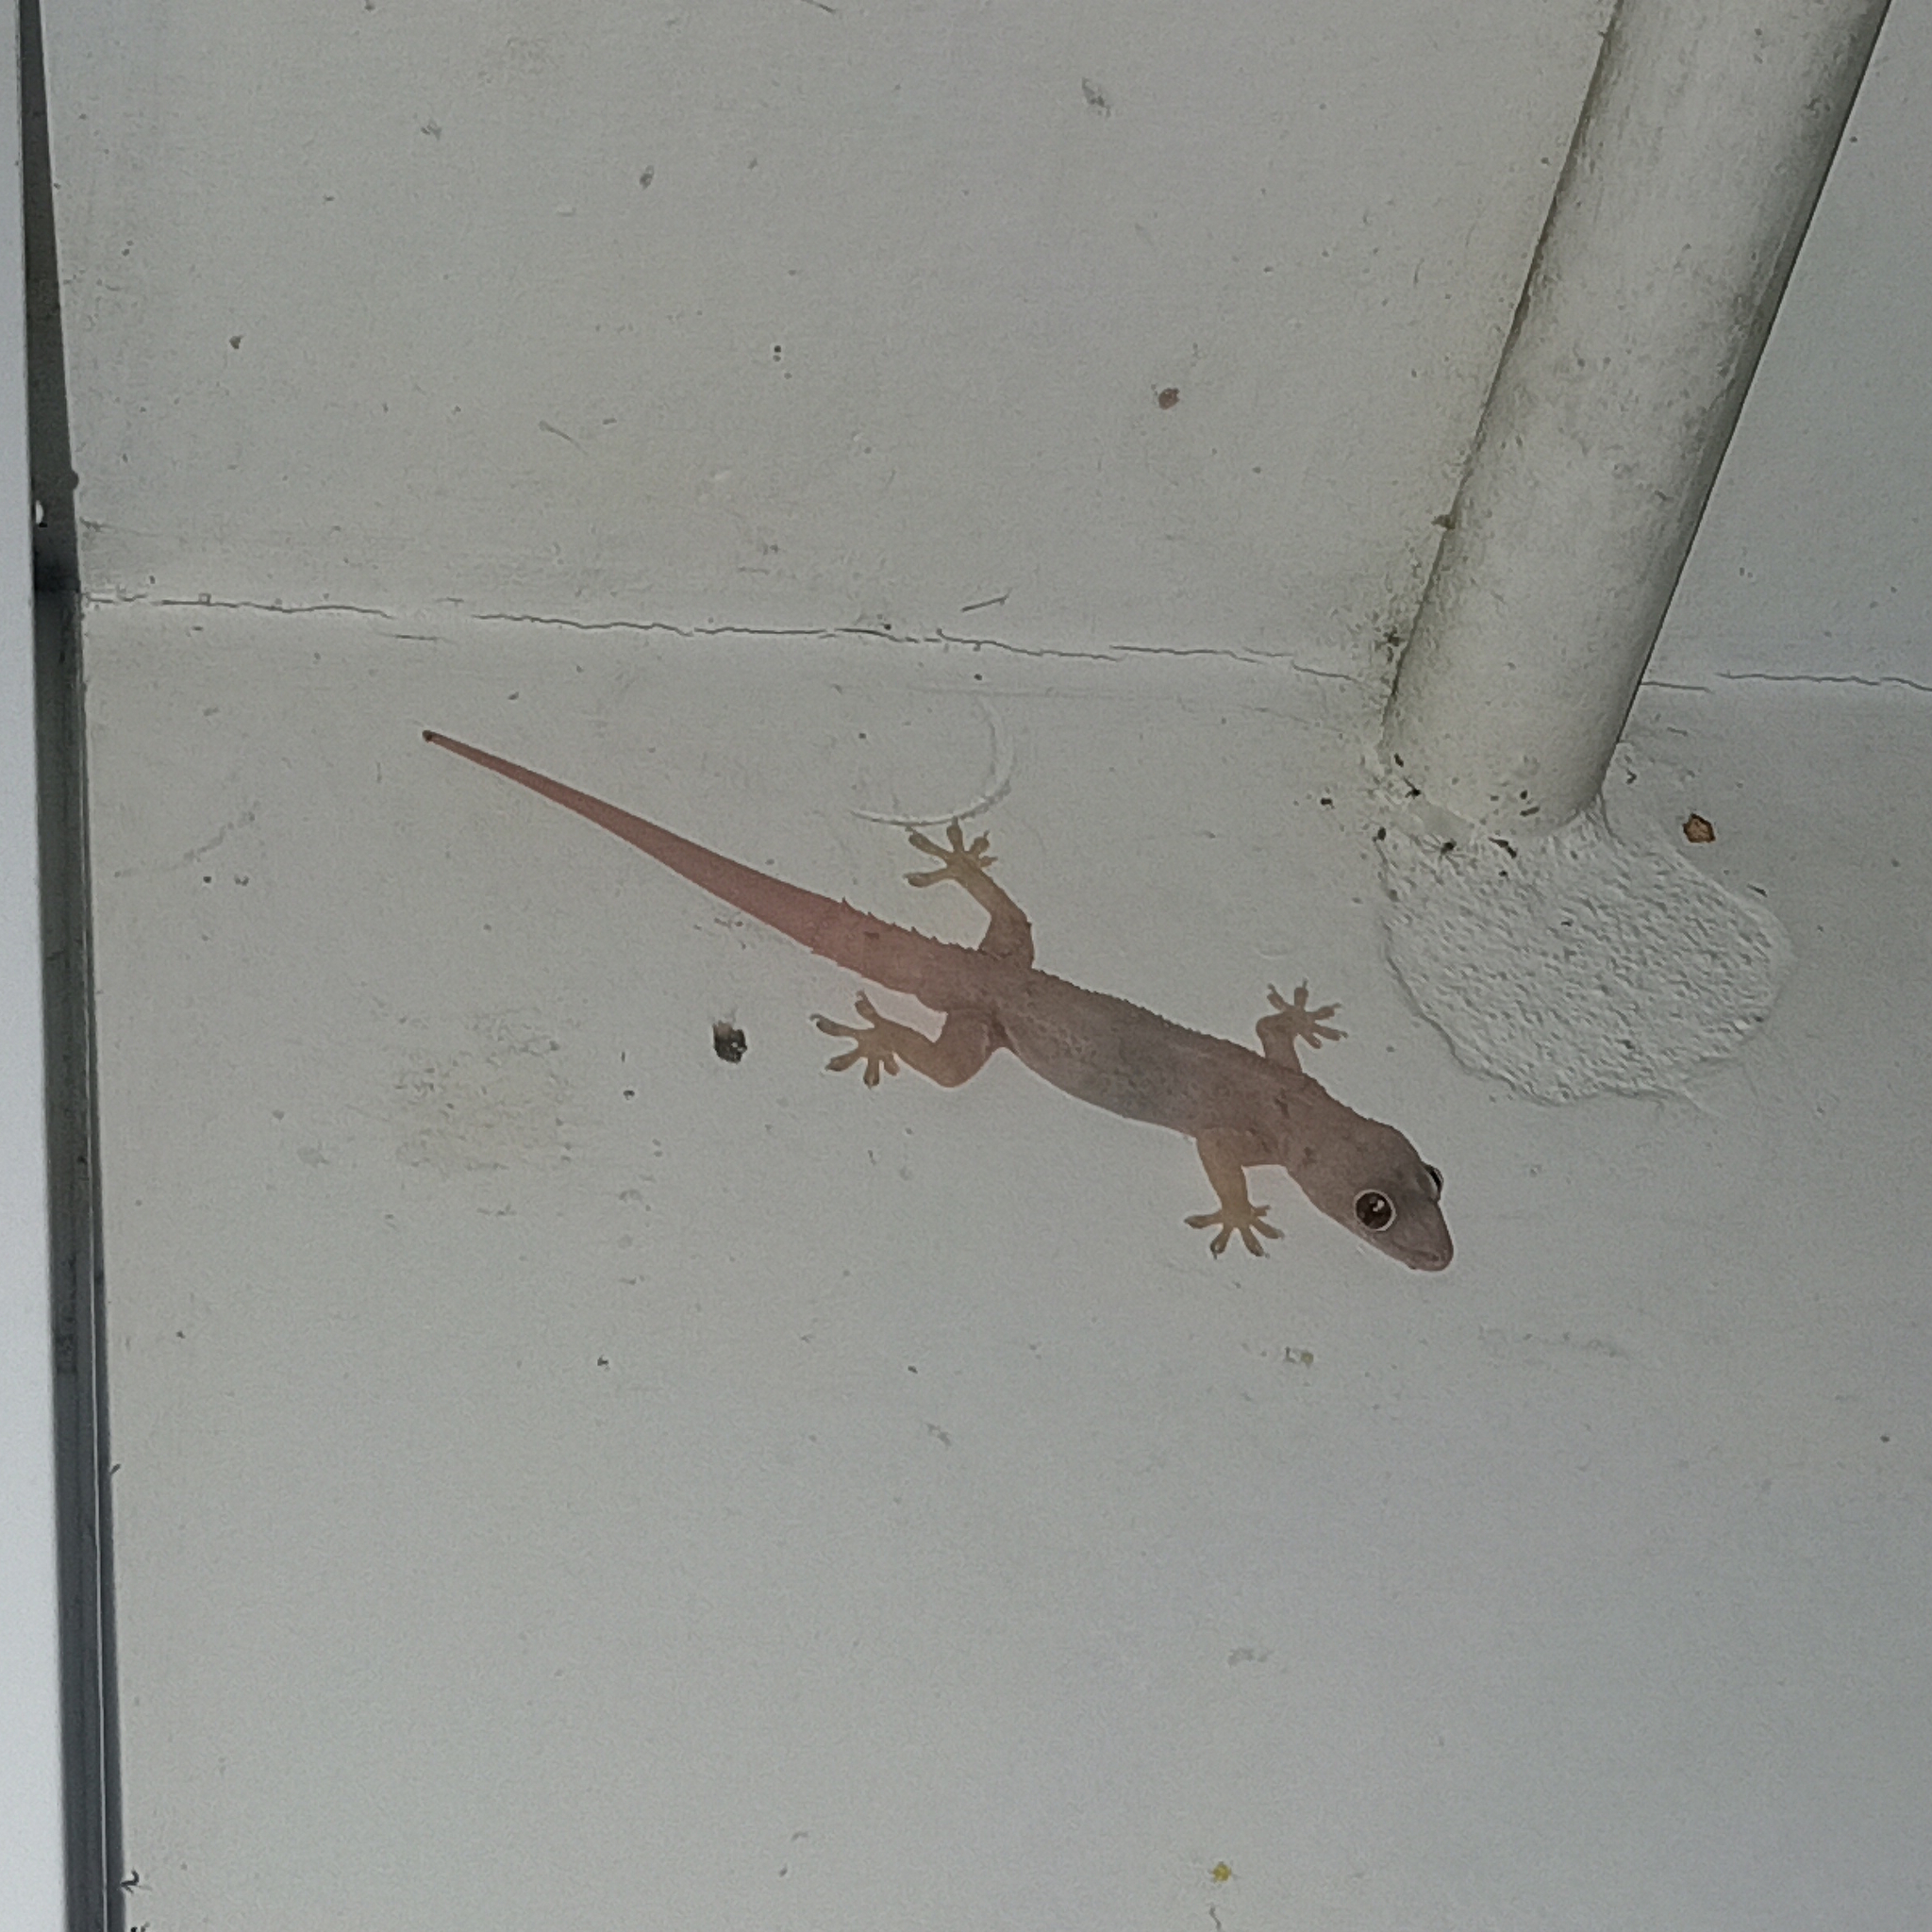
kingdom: Animalia
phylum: Chordata
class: Squamata
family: Gekkonidae
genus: Hemidactylus
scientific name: Hemidactylus mabouia
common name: House gecko
